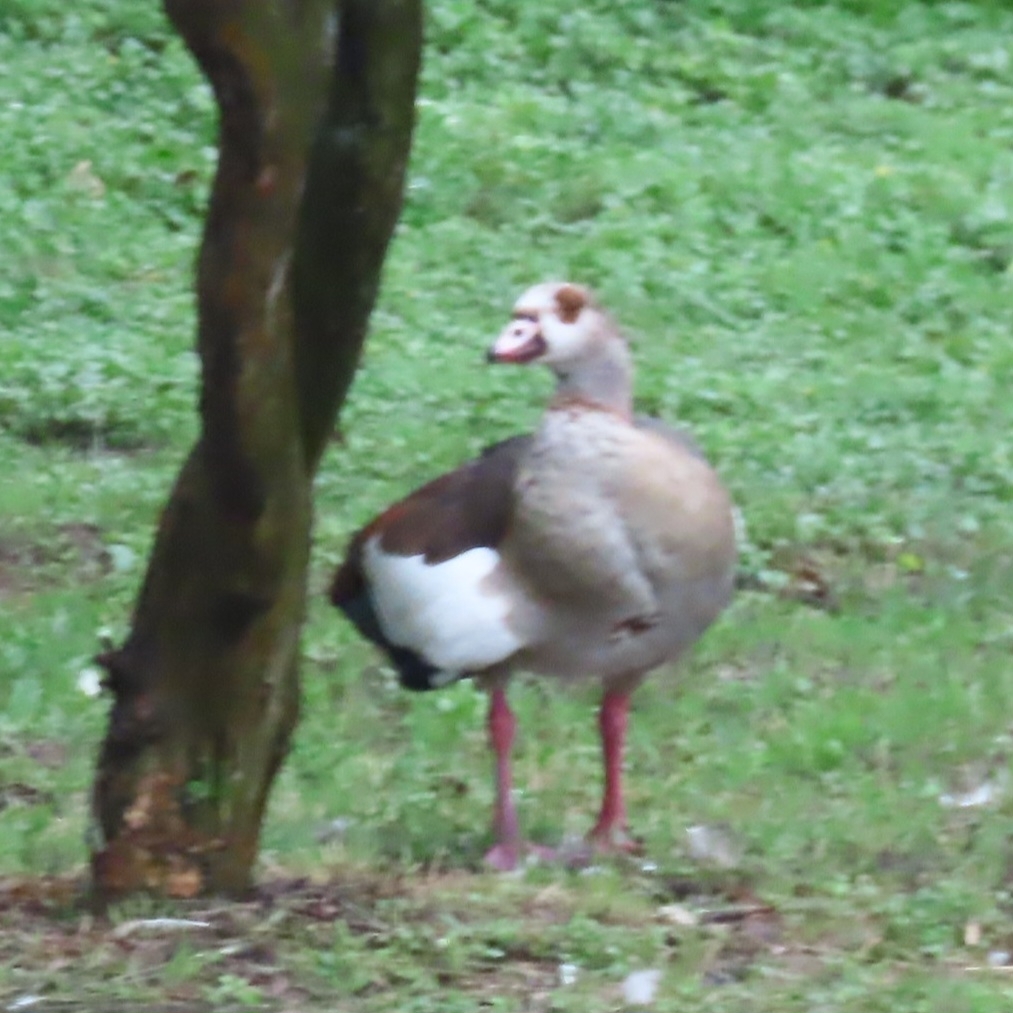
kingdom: Animalia
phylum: Chordata
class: Aves
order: Anseriformes
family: Anatidae
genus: Alopochen
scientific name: Alopochen aegyptiaca
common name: Egyptian goose
